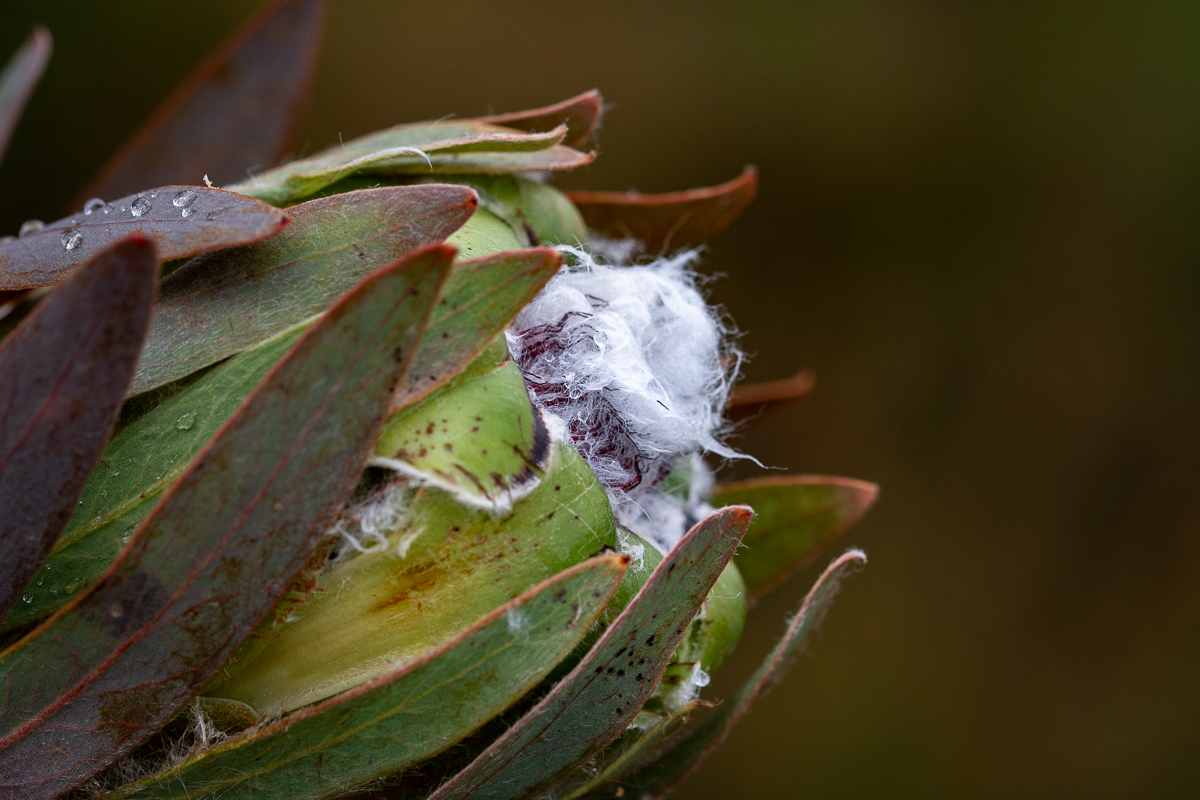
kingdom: Plantae
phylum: Tracheophyta
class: Magnoliopsida
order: Proteales
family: Proteaceae
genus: Protea
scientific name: Protea coronata
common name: Green sugarbush
